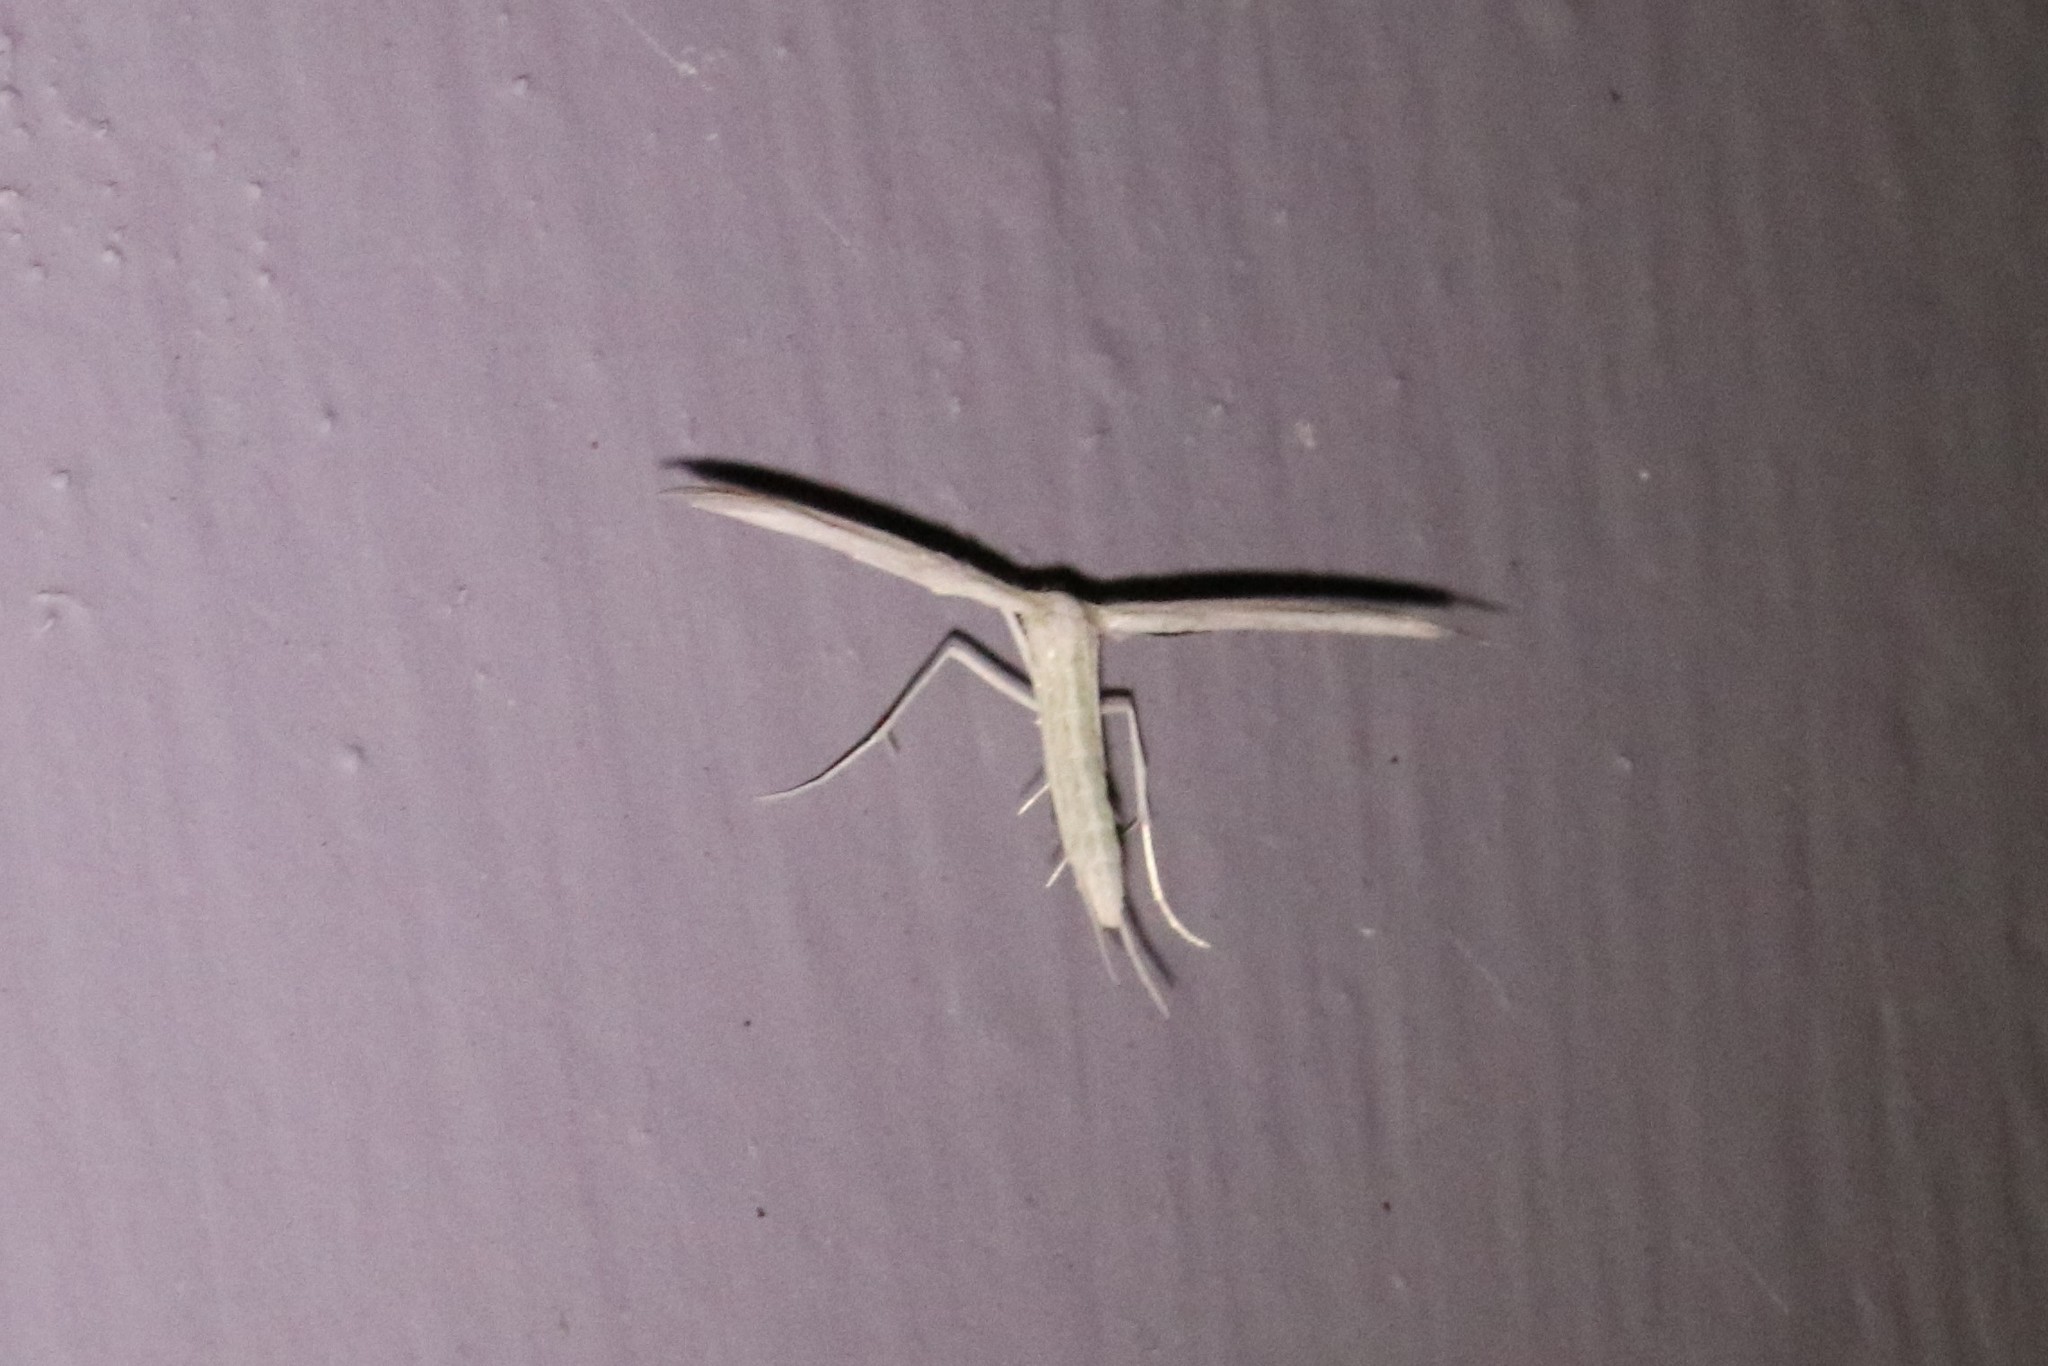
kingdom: Animalia
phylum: Arthropoda
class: Insecta
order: Lepidoptera
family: Pterophoridae
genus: Hellinsia
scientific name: Hellinsia homodactylus
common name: Plain plume moth
